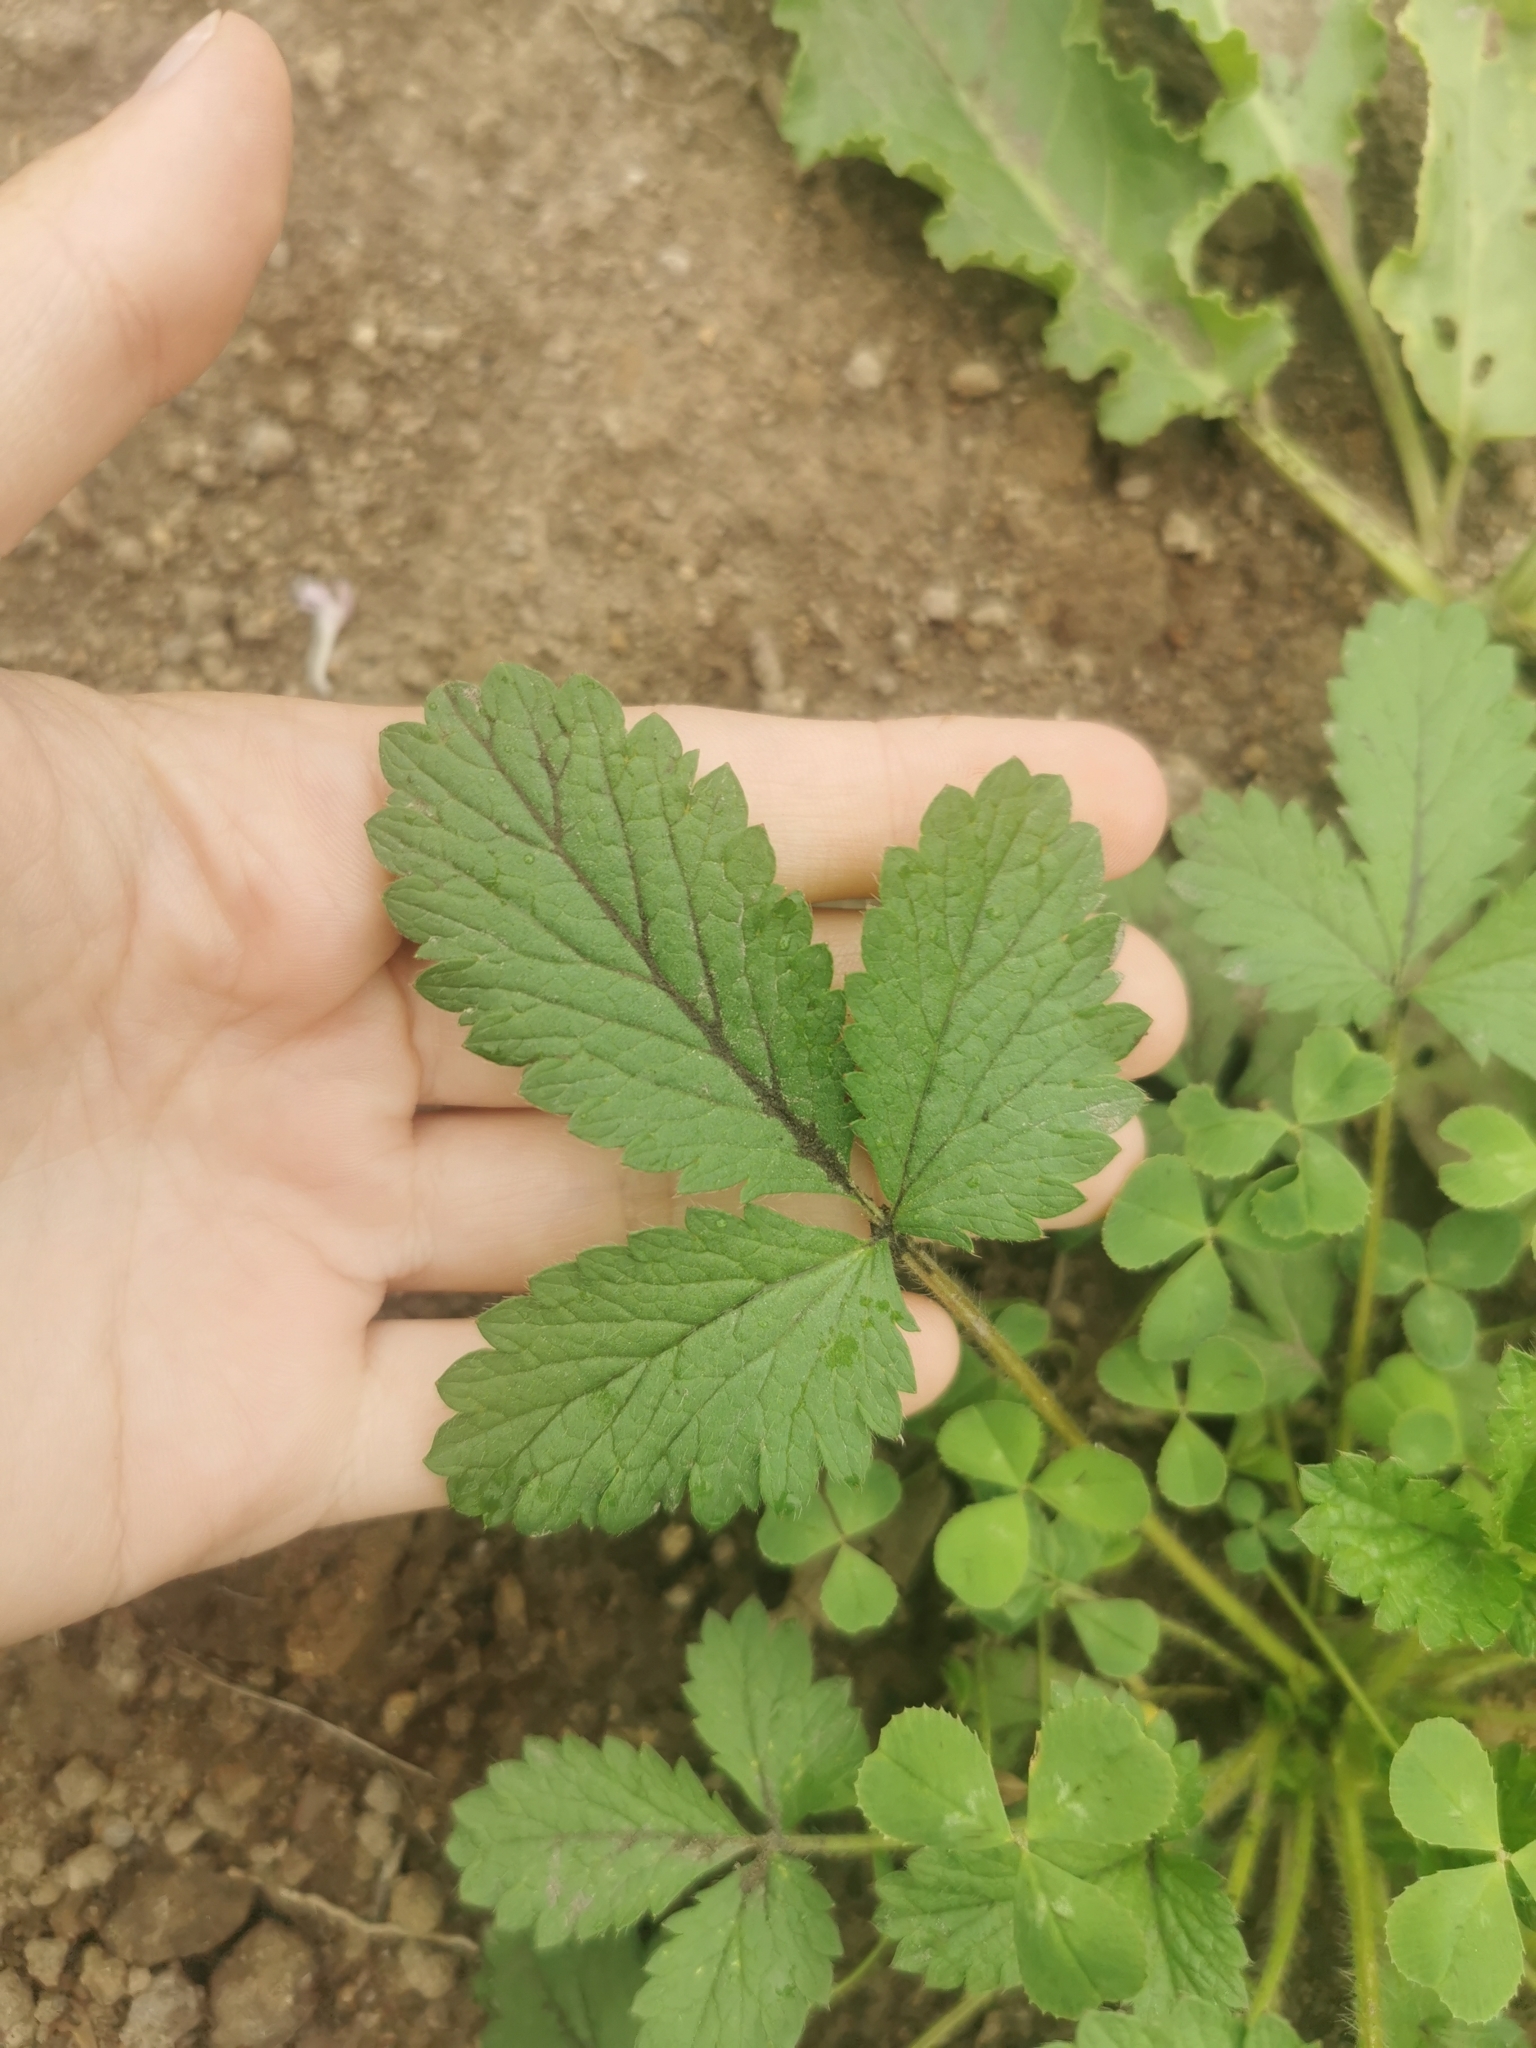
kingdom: Plantae
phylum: Tracheophyta
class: Magnoliopsida
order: Rosales
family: Rosaceae
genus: Potentilla
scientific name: Potentilla norvegica
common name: Ternate-leaved cinquefoil
